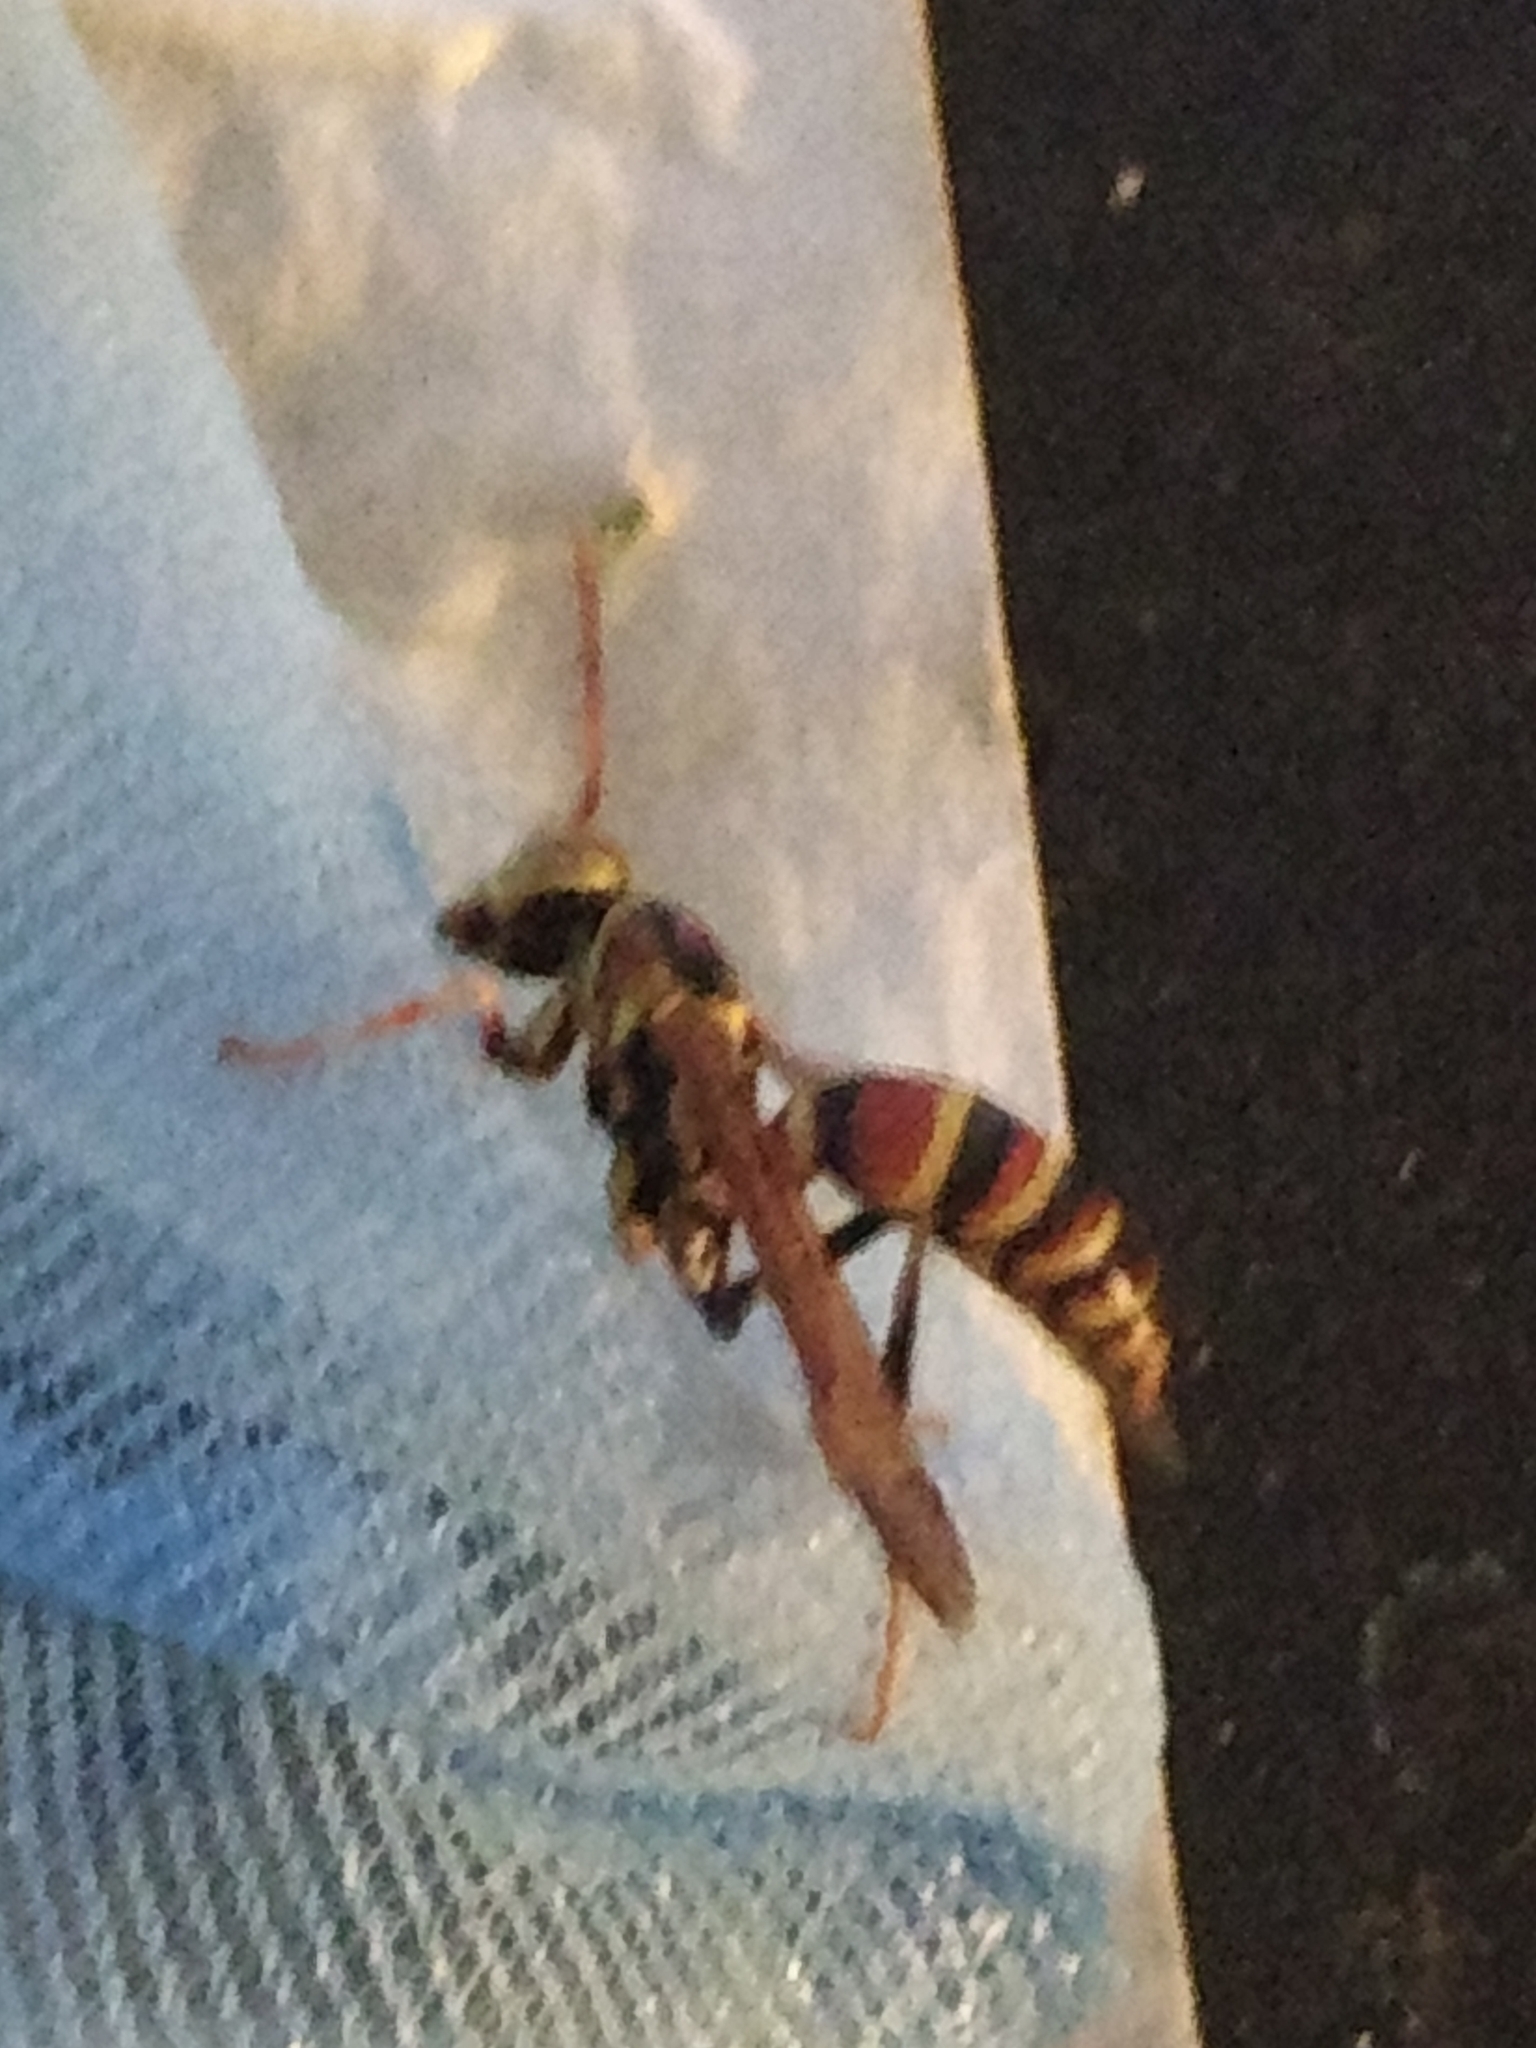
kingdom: Animalia
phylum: Arthropoda
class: Insecta
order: Hymenoptera
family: Eumenidae
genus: Polistes
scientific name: Polistes exclamans
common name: Paper wasp
